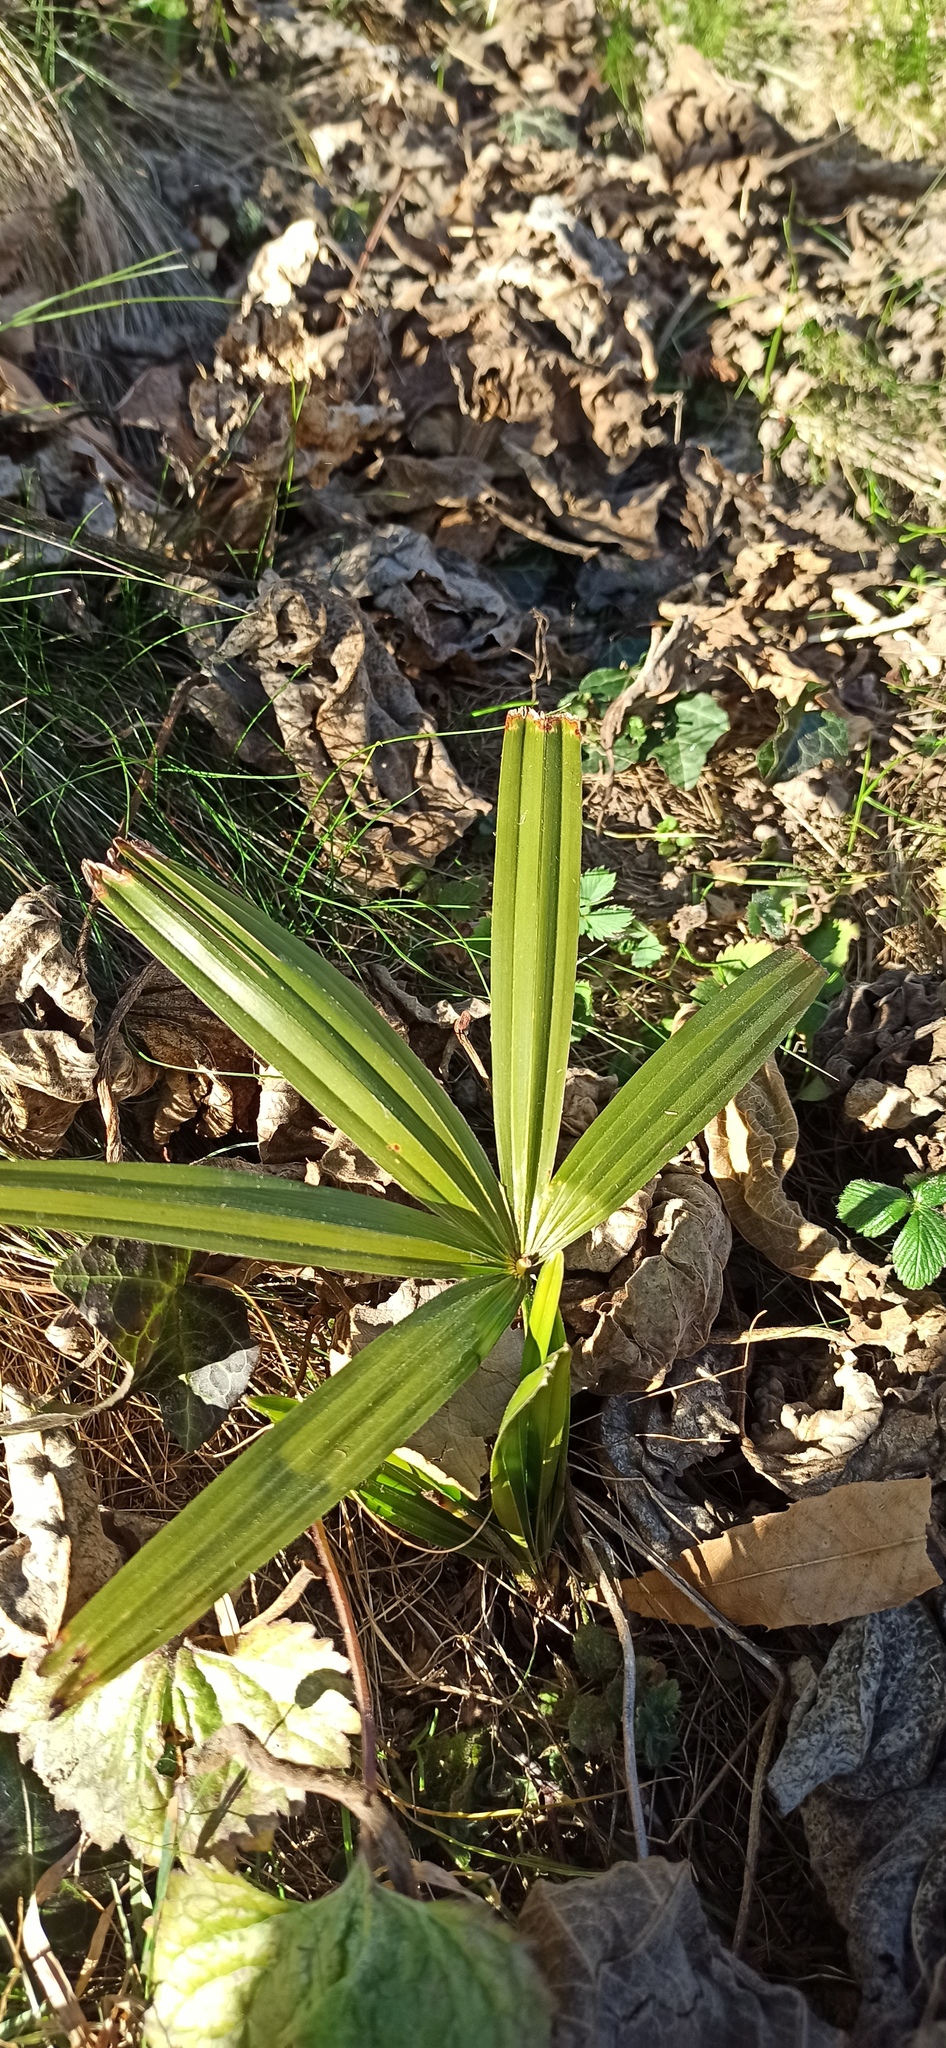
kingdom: Plantae
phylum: Tracheophyta
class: Liliopsida
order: Arecales
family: Arecaceae
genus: Trachycarpus
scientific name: Trachycarpus fortunei
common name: Chusan palm
